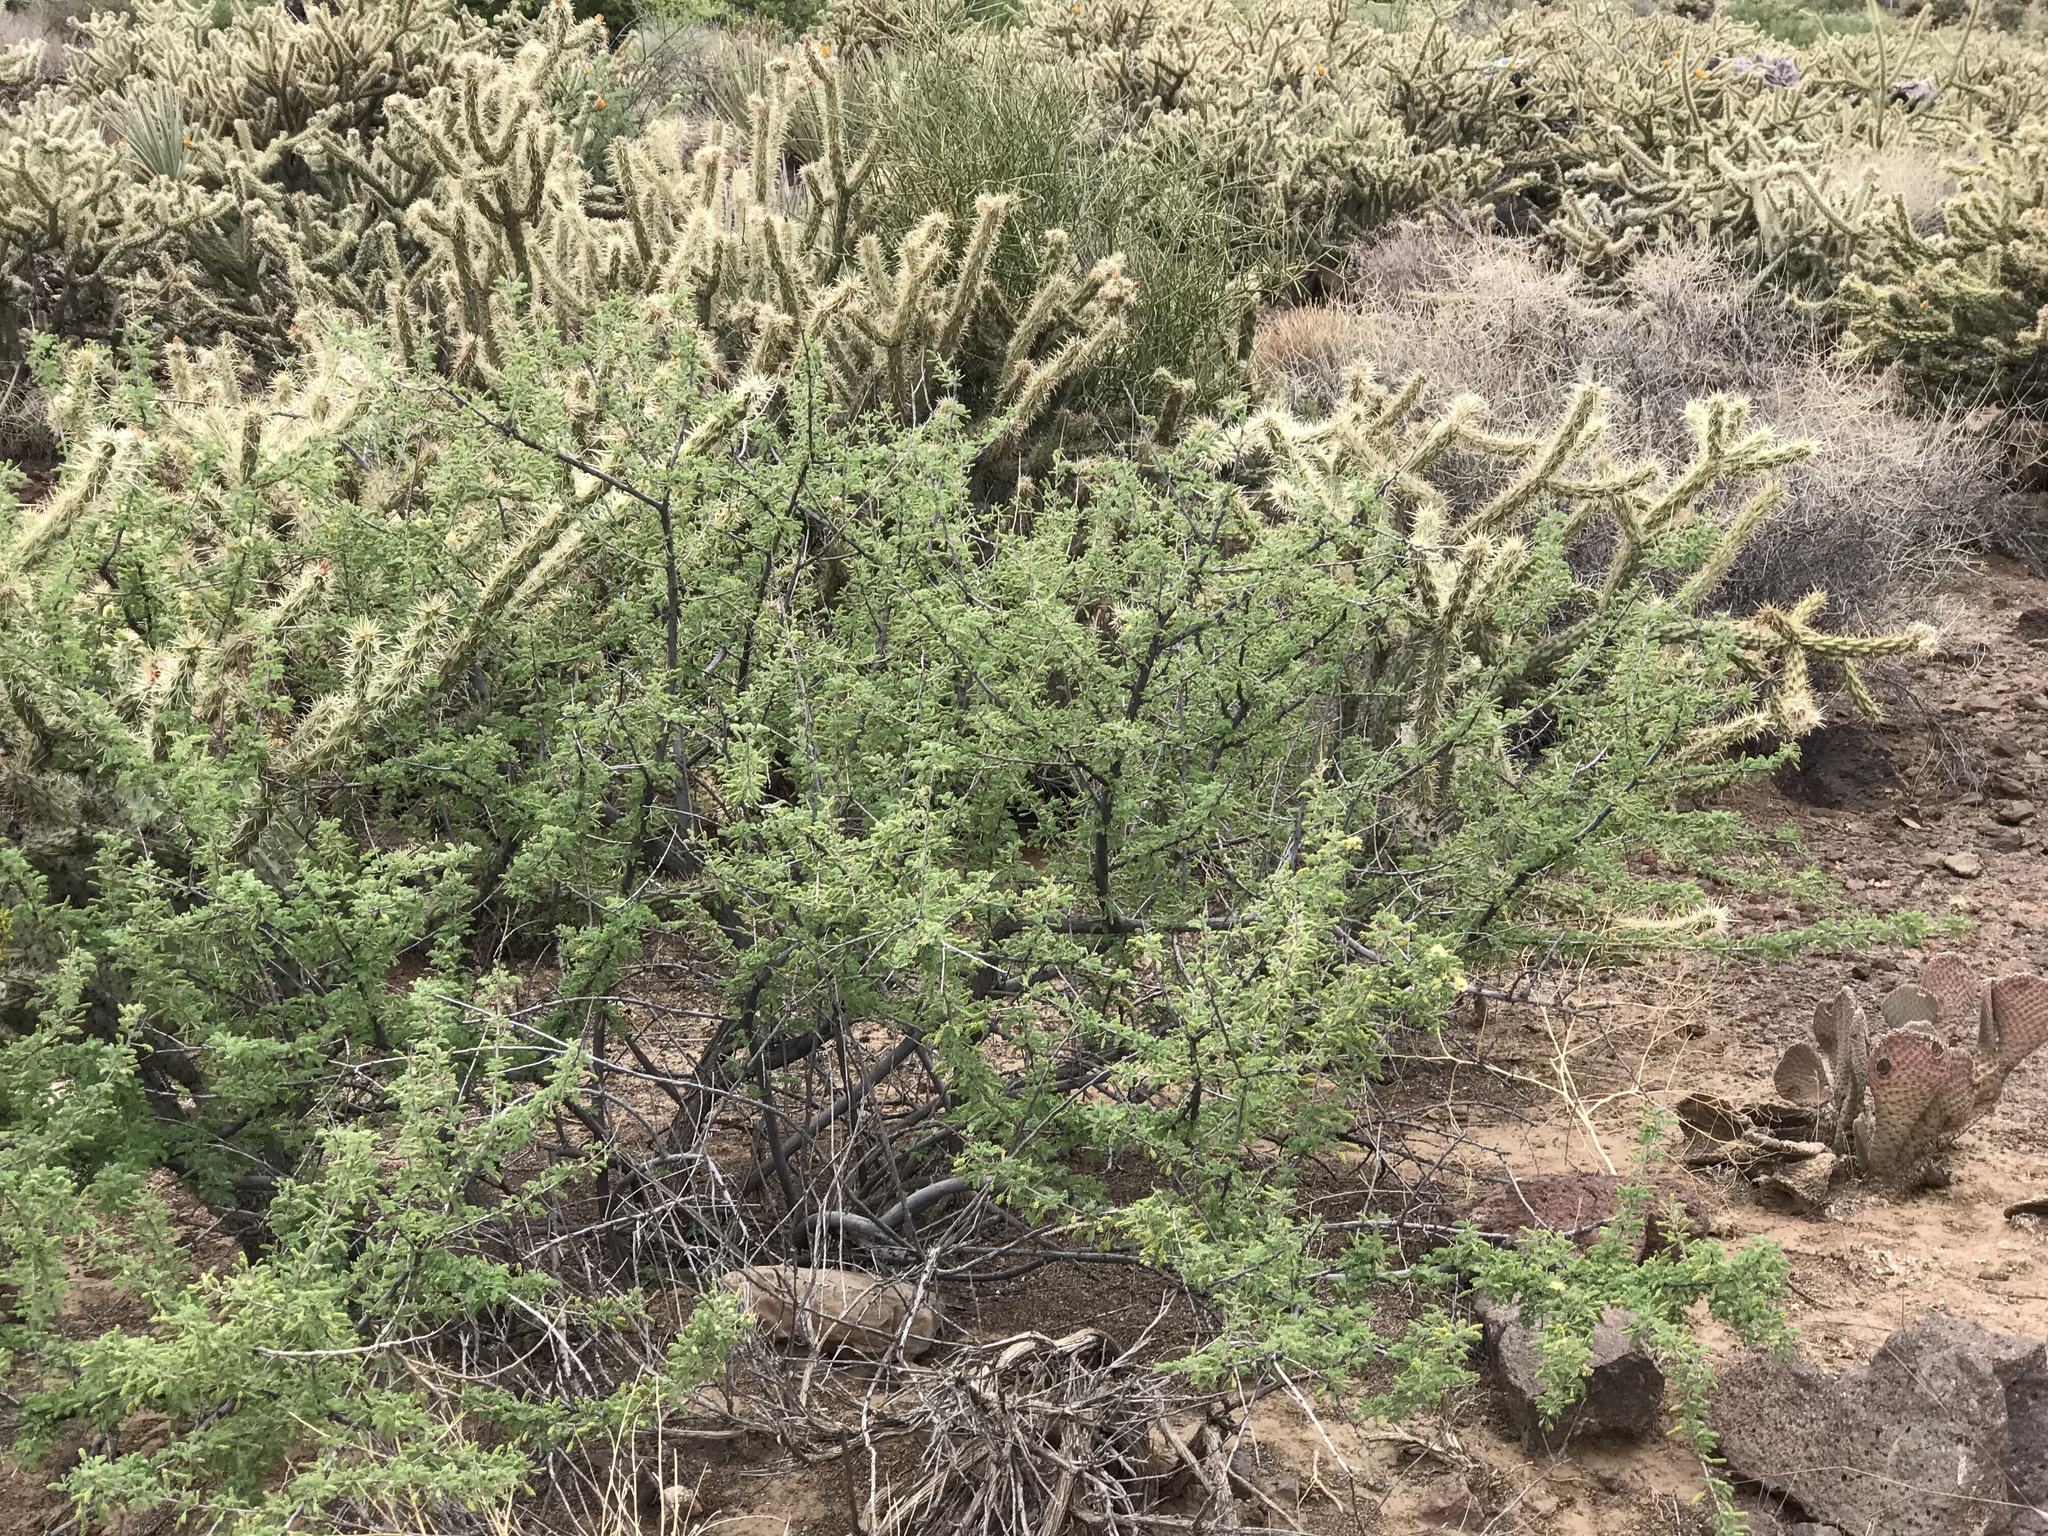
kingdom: Plantae
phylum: Tracheophyta
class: Magnoliopsida
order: Fabales
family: Fabaceae
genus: Senegalia
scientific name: Senegalia greggii
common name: Texas-mimosa
